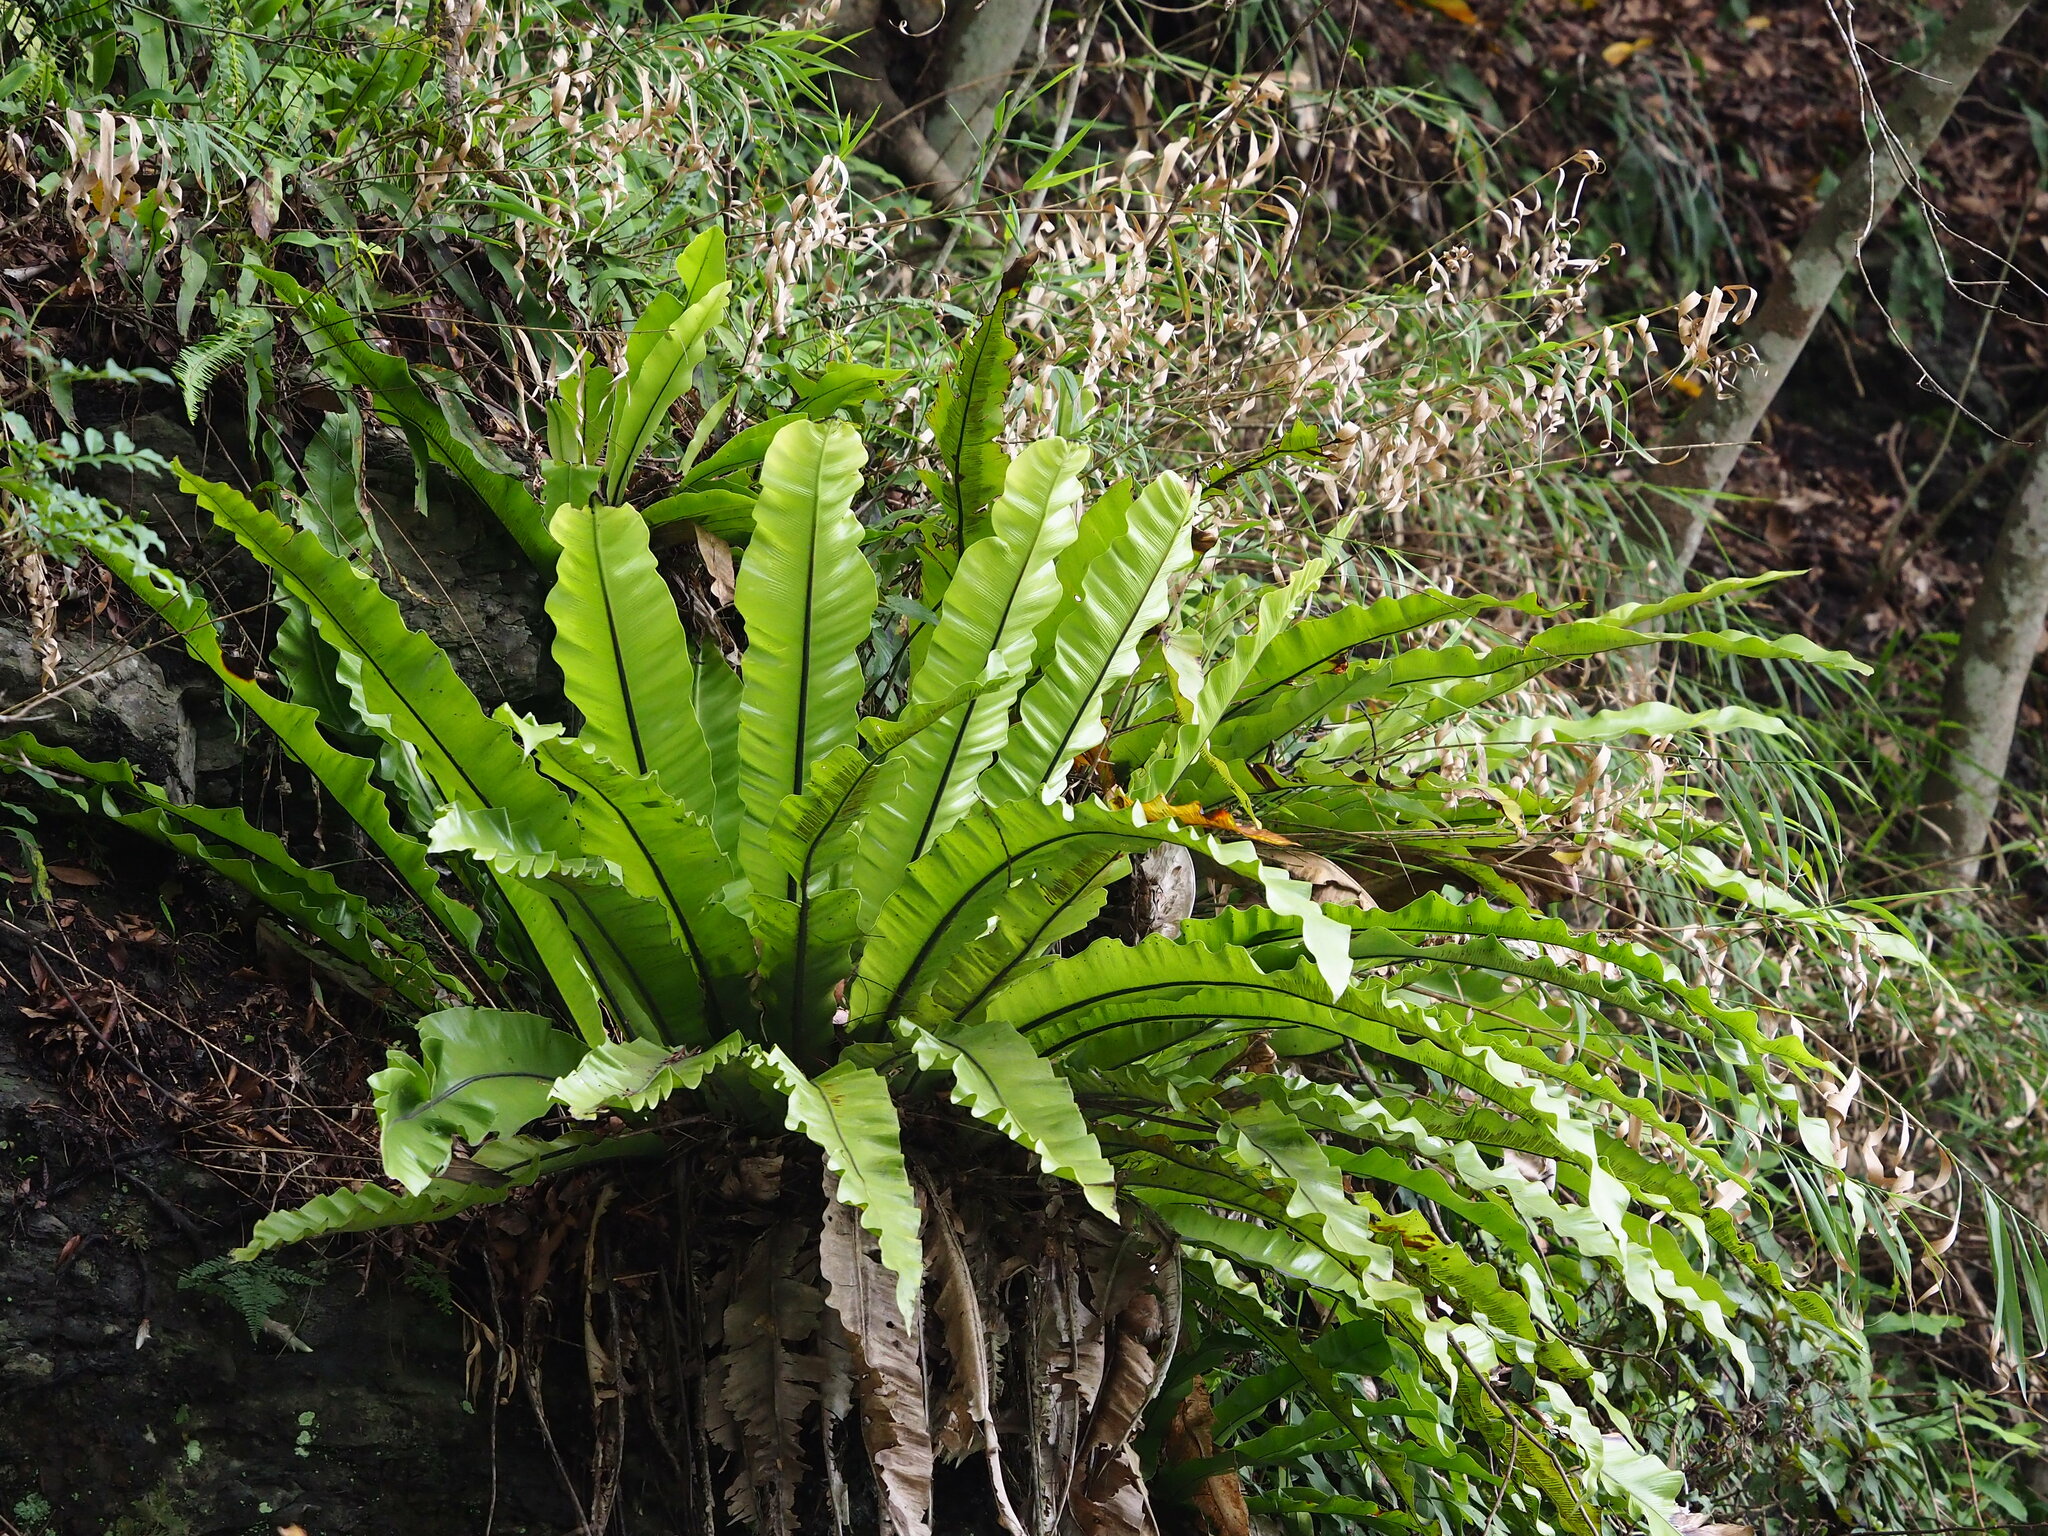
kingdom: Plantae
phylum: Tracheophyta
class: Polypodiopsida
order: Polypodiales
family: Aspleniaceae
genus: Asplenium
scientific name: Asplenium nidus
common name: Bird's-nest fern
